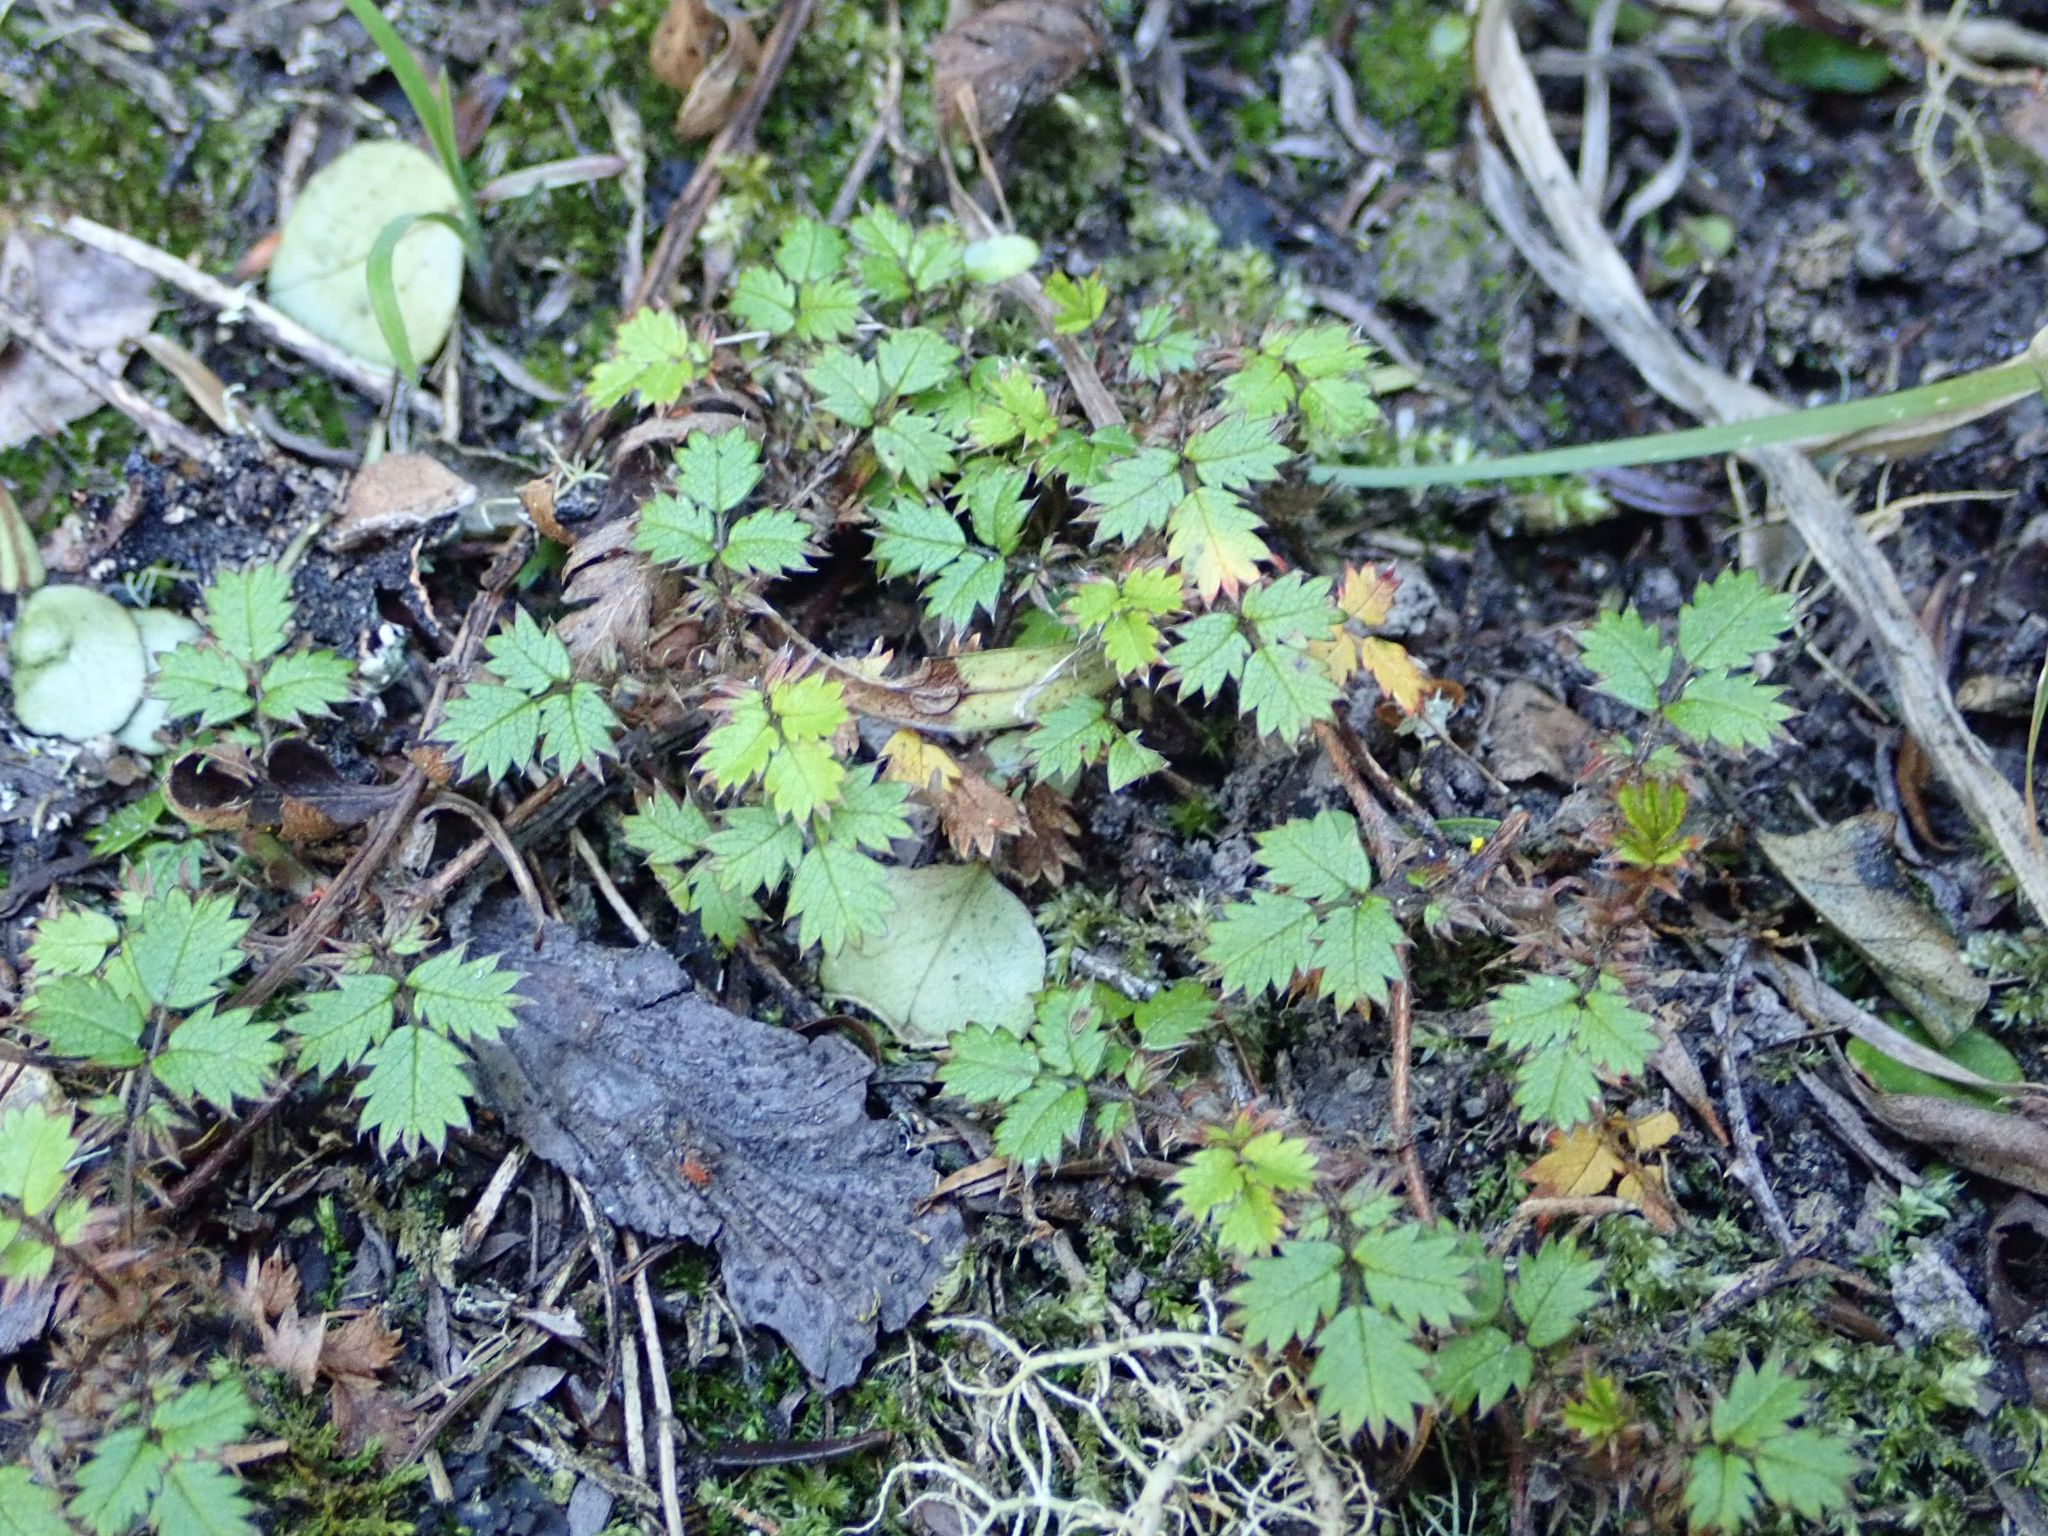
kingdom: Plantae
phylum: Tracheophyta
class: Magnoliopsida
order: Rosales
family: Rosaceae
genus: Acaena
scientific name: Acaena juvenca
